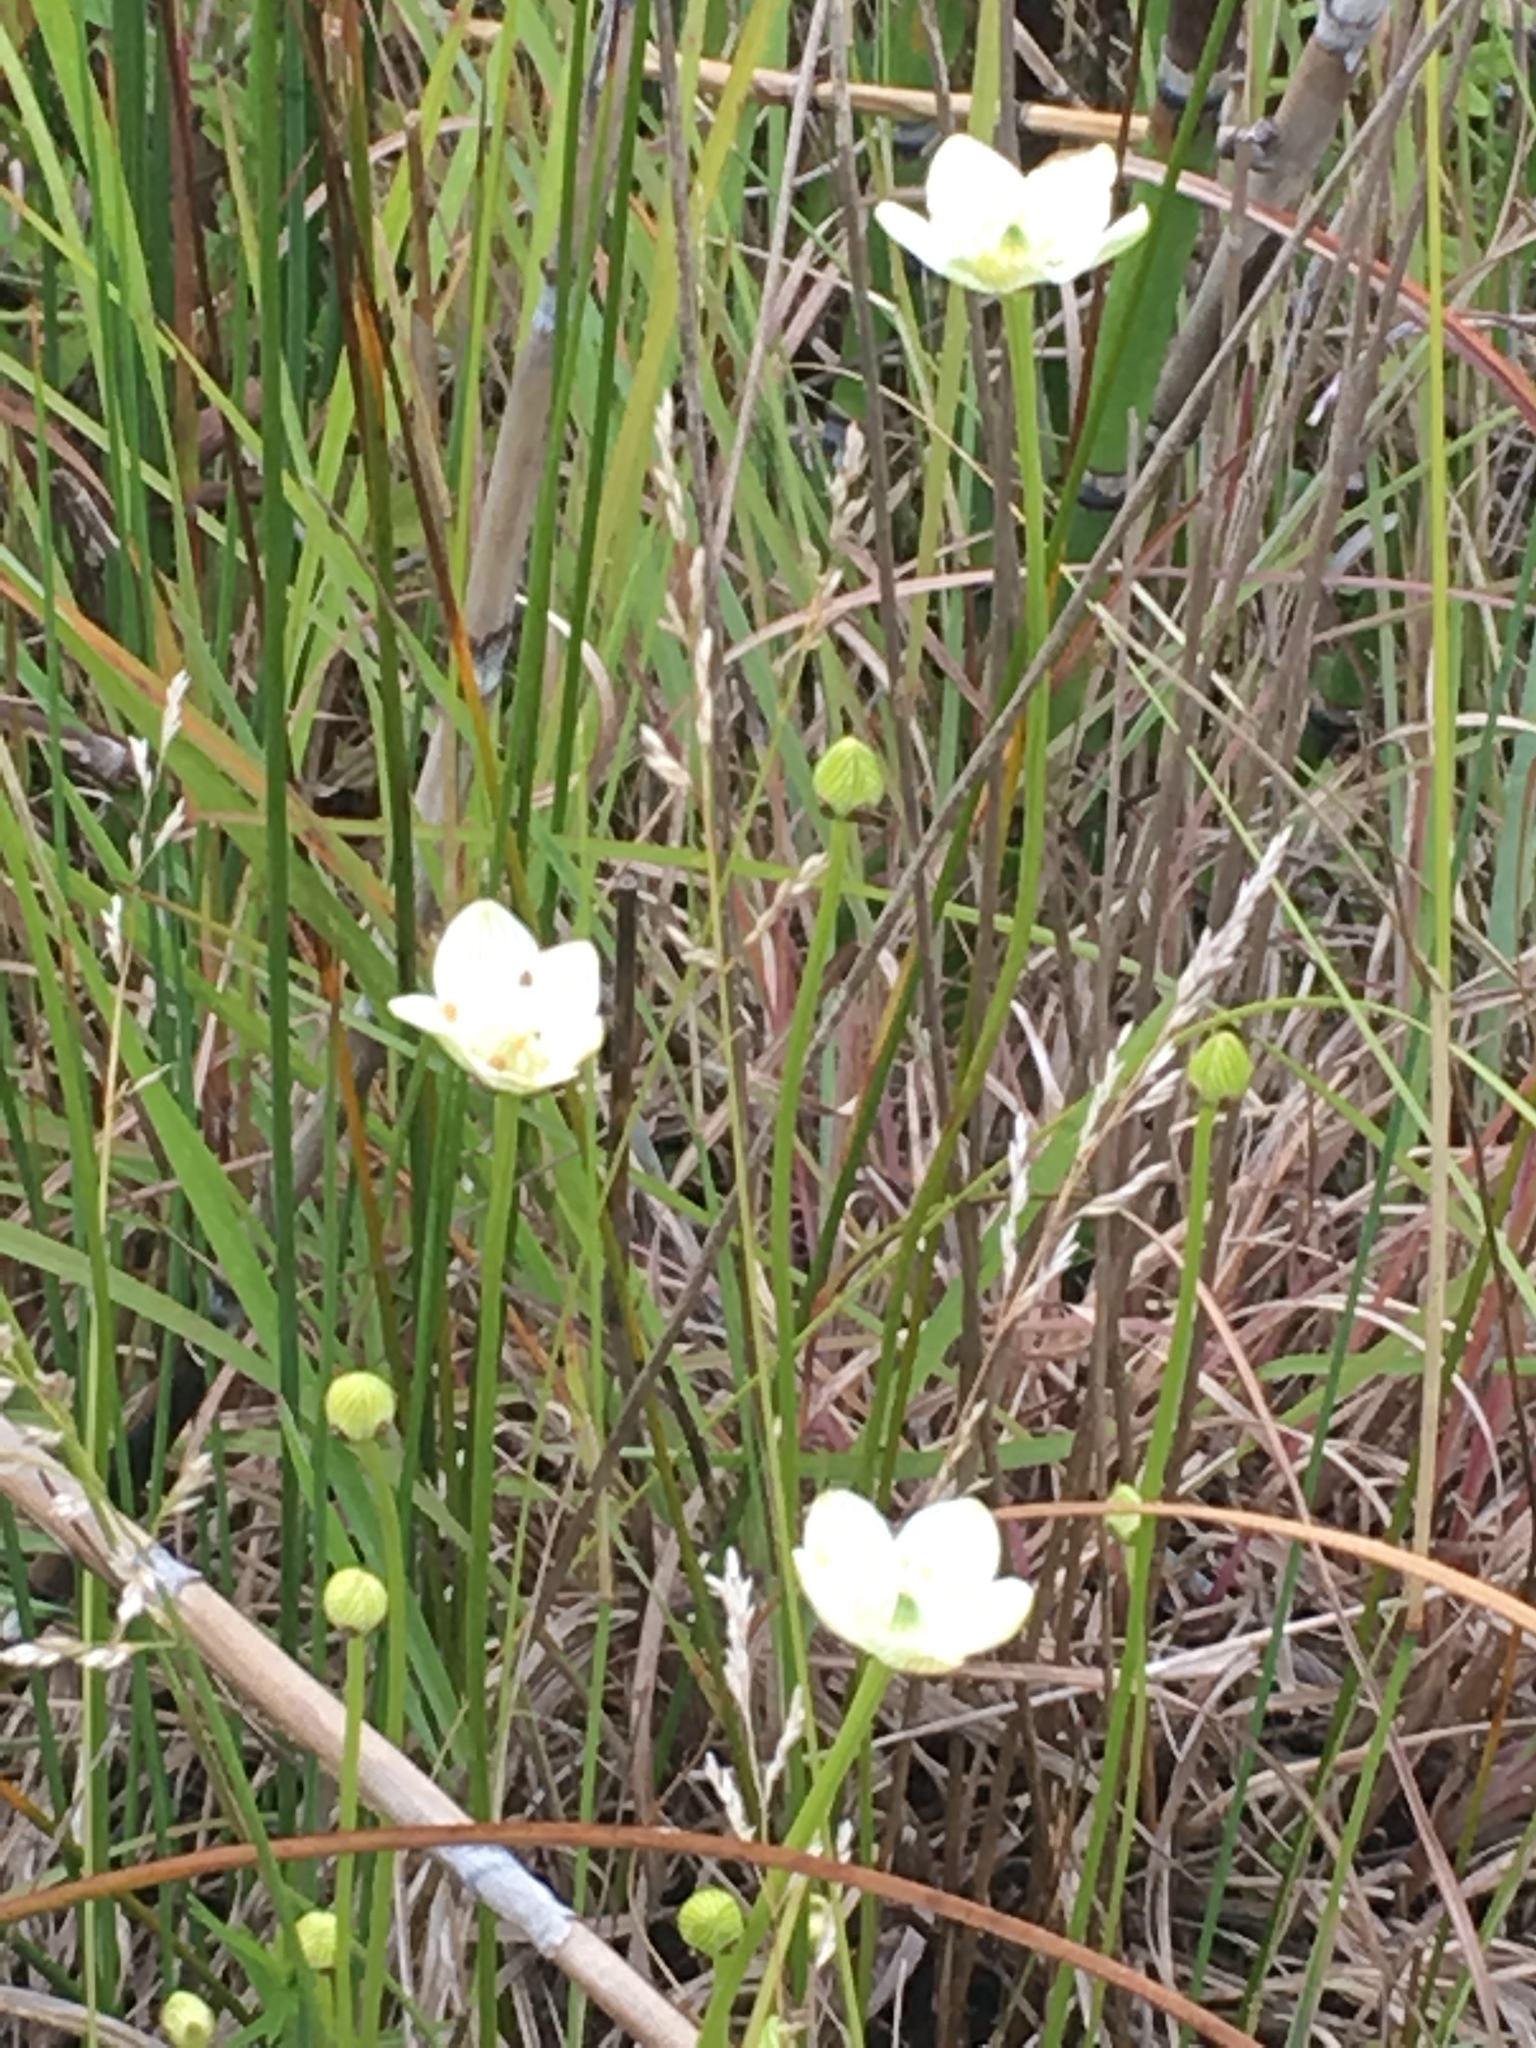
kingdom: Plantae
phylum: Tracheophyta
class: Magnoliopsida
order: Celastrales
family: Parnassiaceae
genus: Parnassia
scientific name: Parnassia glauca
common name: American grass-of-parnassus
